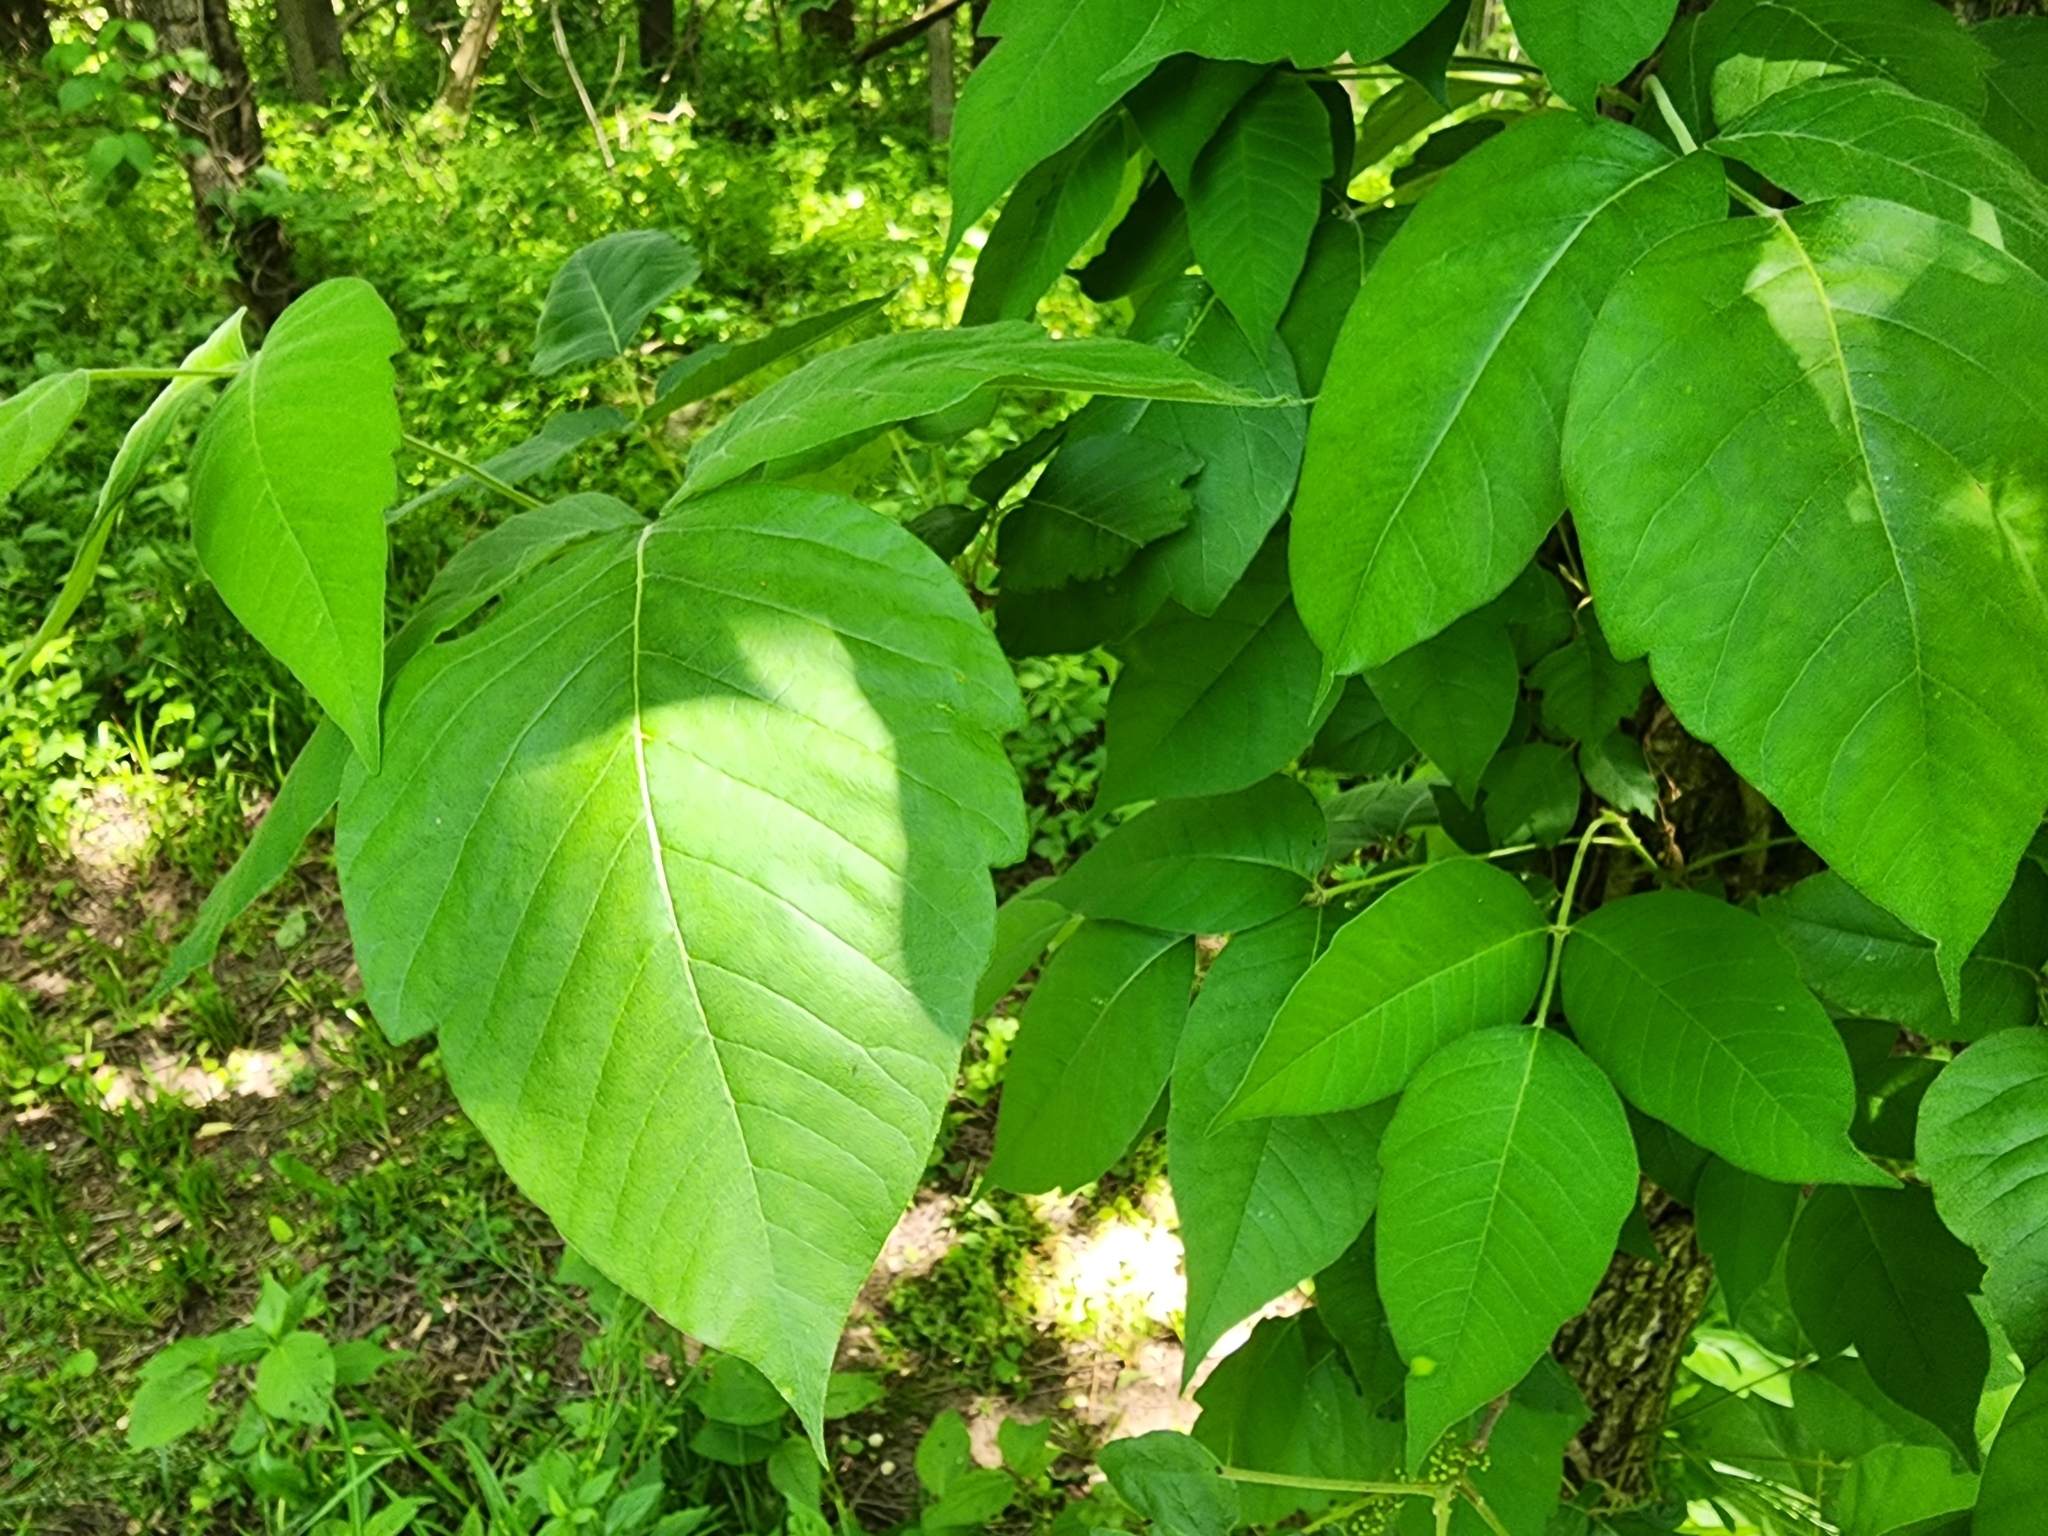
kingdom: Plantae
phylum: Tracheophyta
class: Magnoliopsida
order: Sapindales
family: Anacardiaceae
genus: Toxicodendron
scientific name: Toxicodendron radicans
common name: Poison ivy
